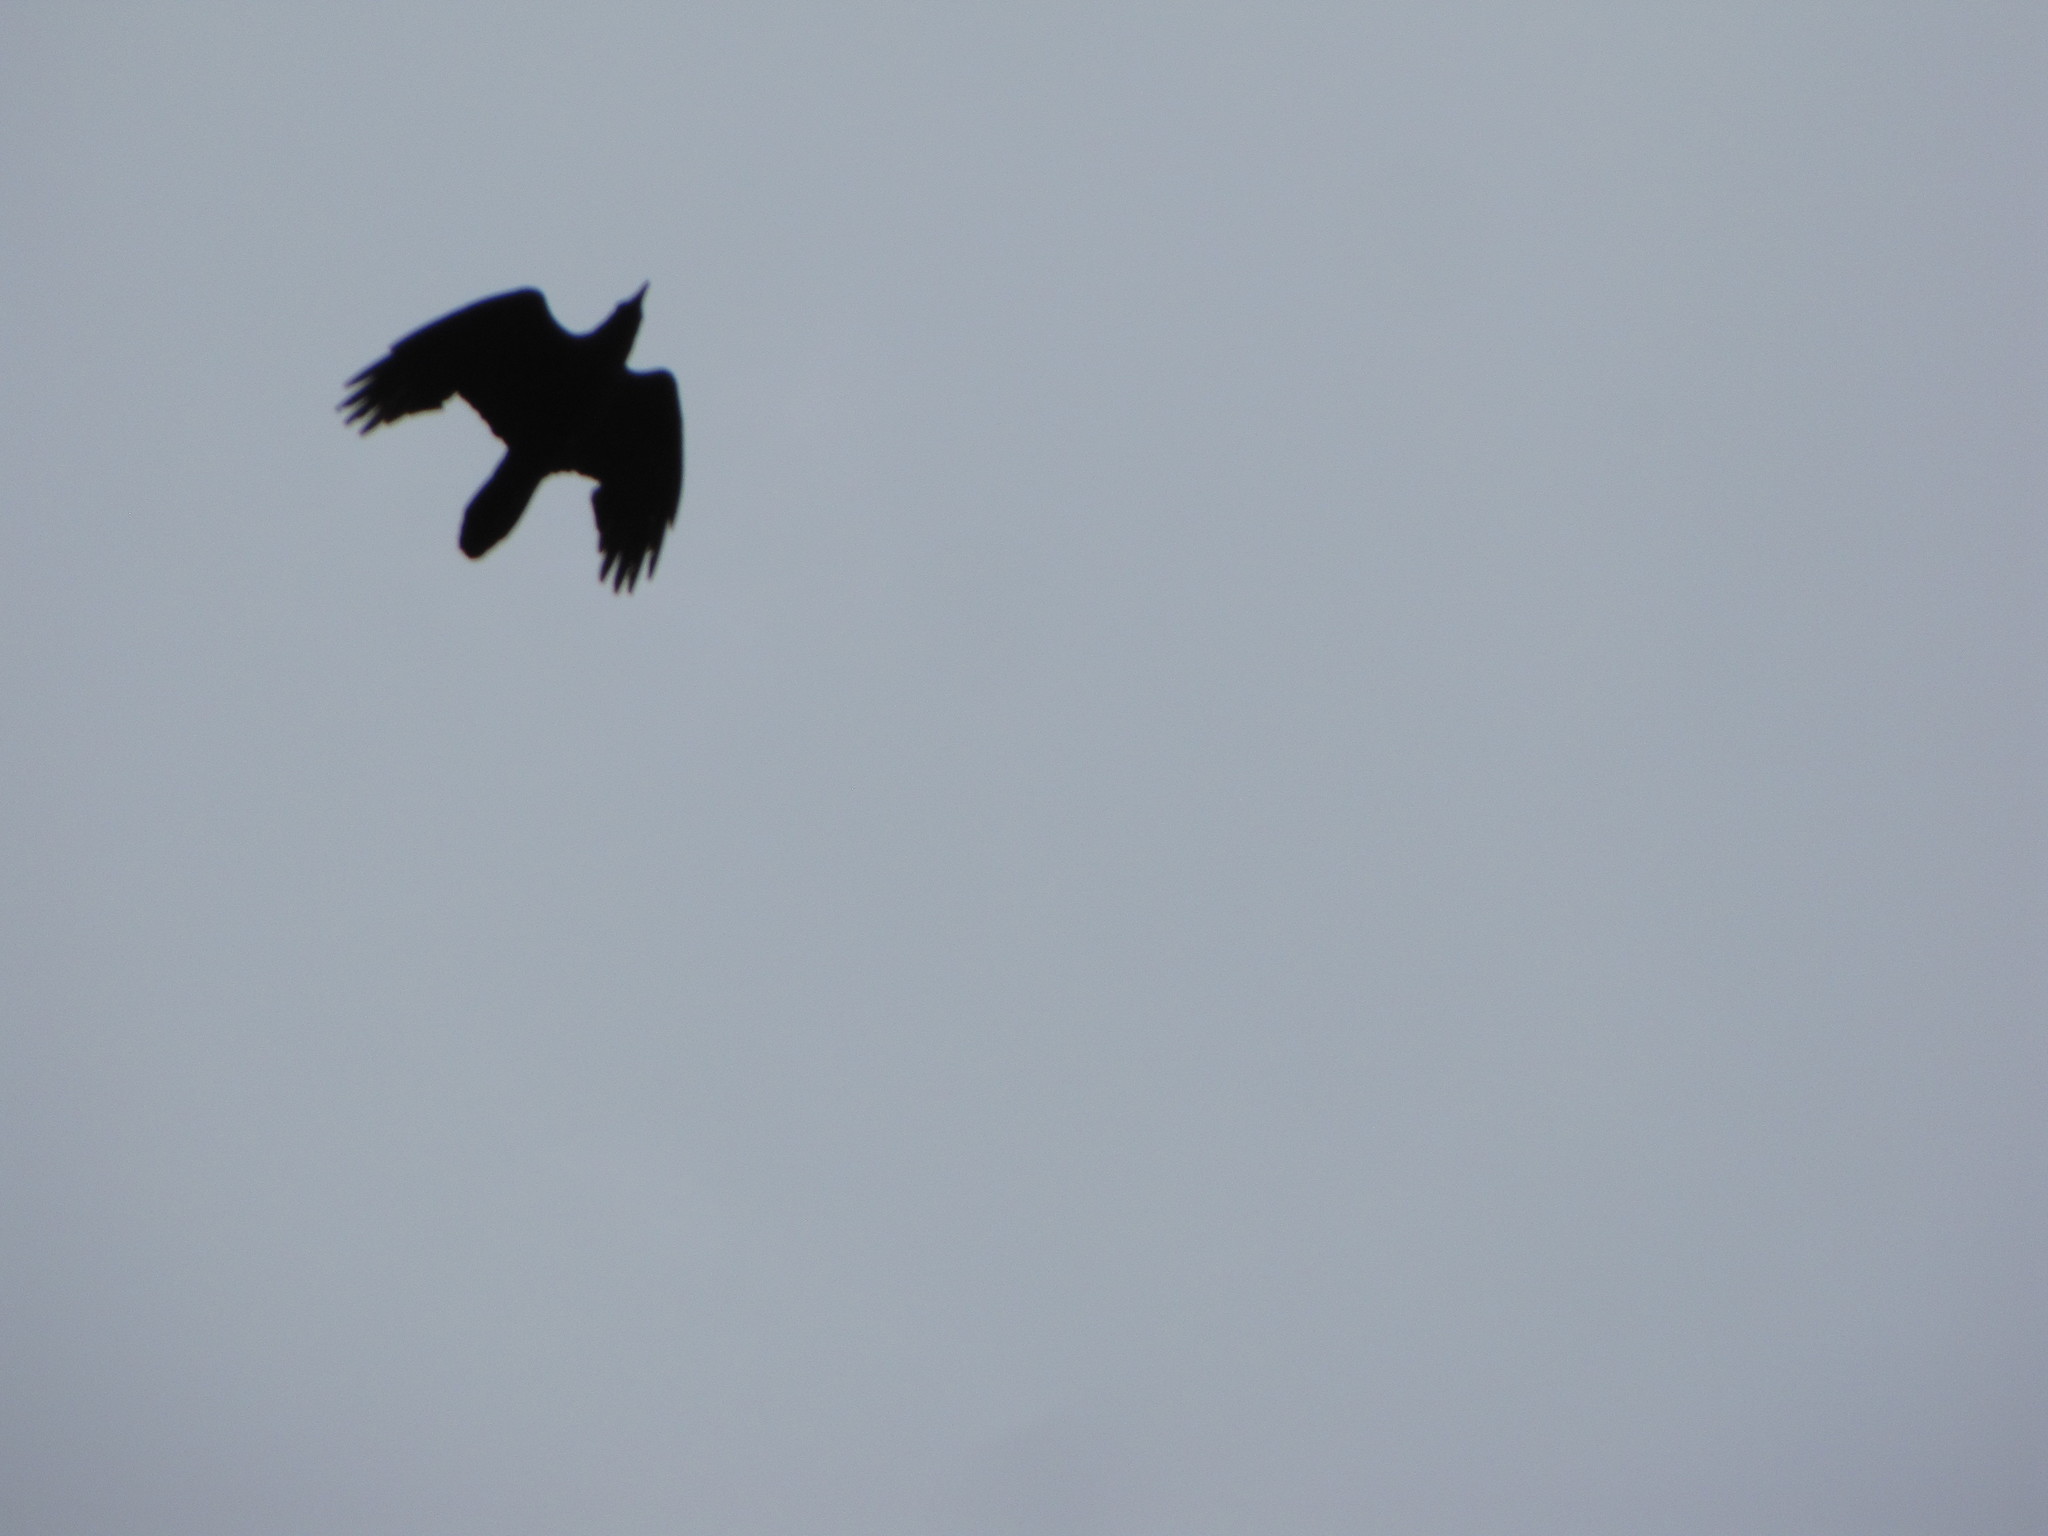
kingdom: Animalia
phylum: Chordata
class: Aves
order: Passeriformes
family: Corvidae
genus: Corvus
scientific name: Corvus corax
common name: Common raven
